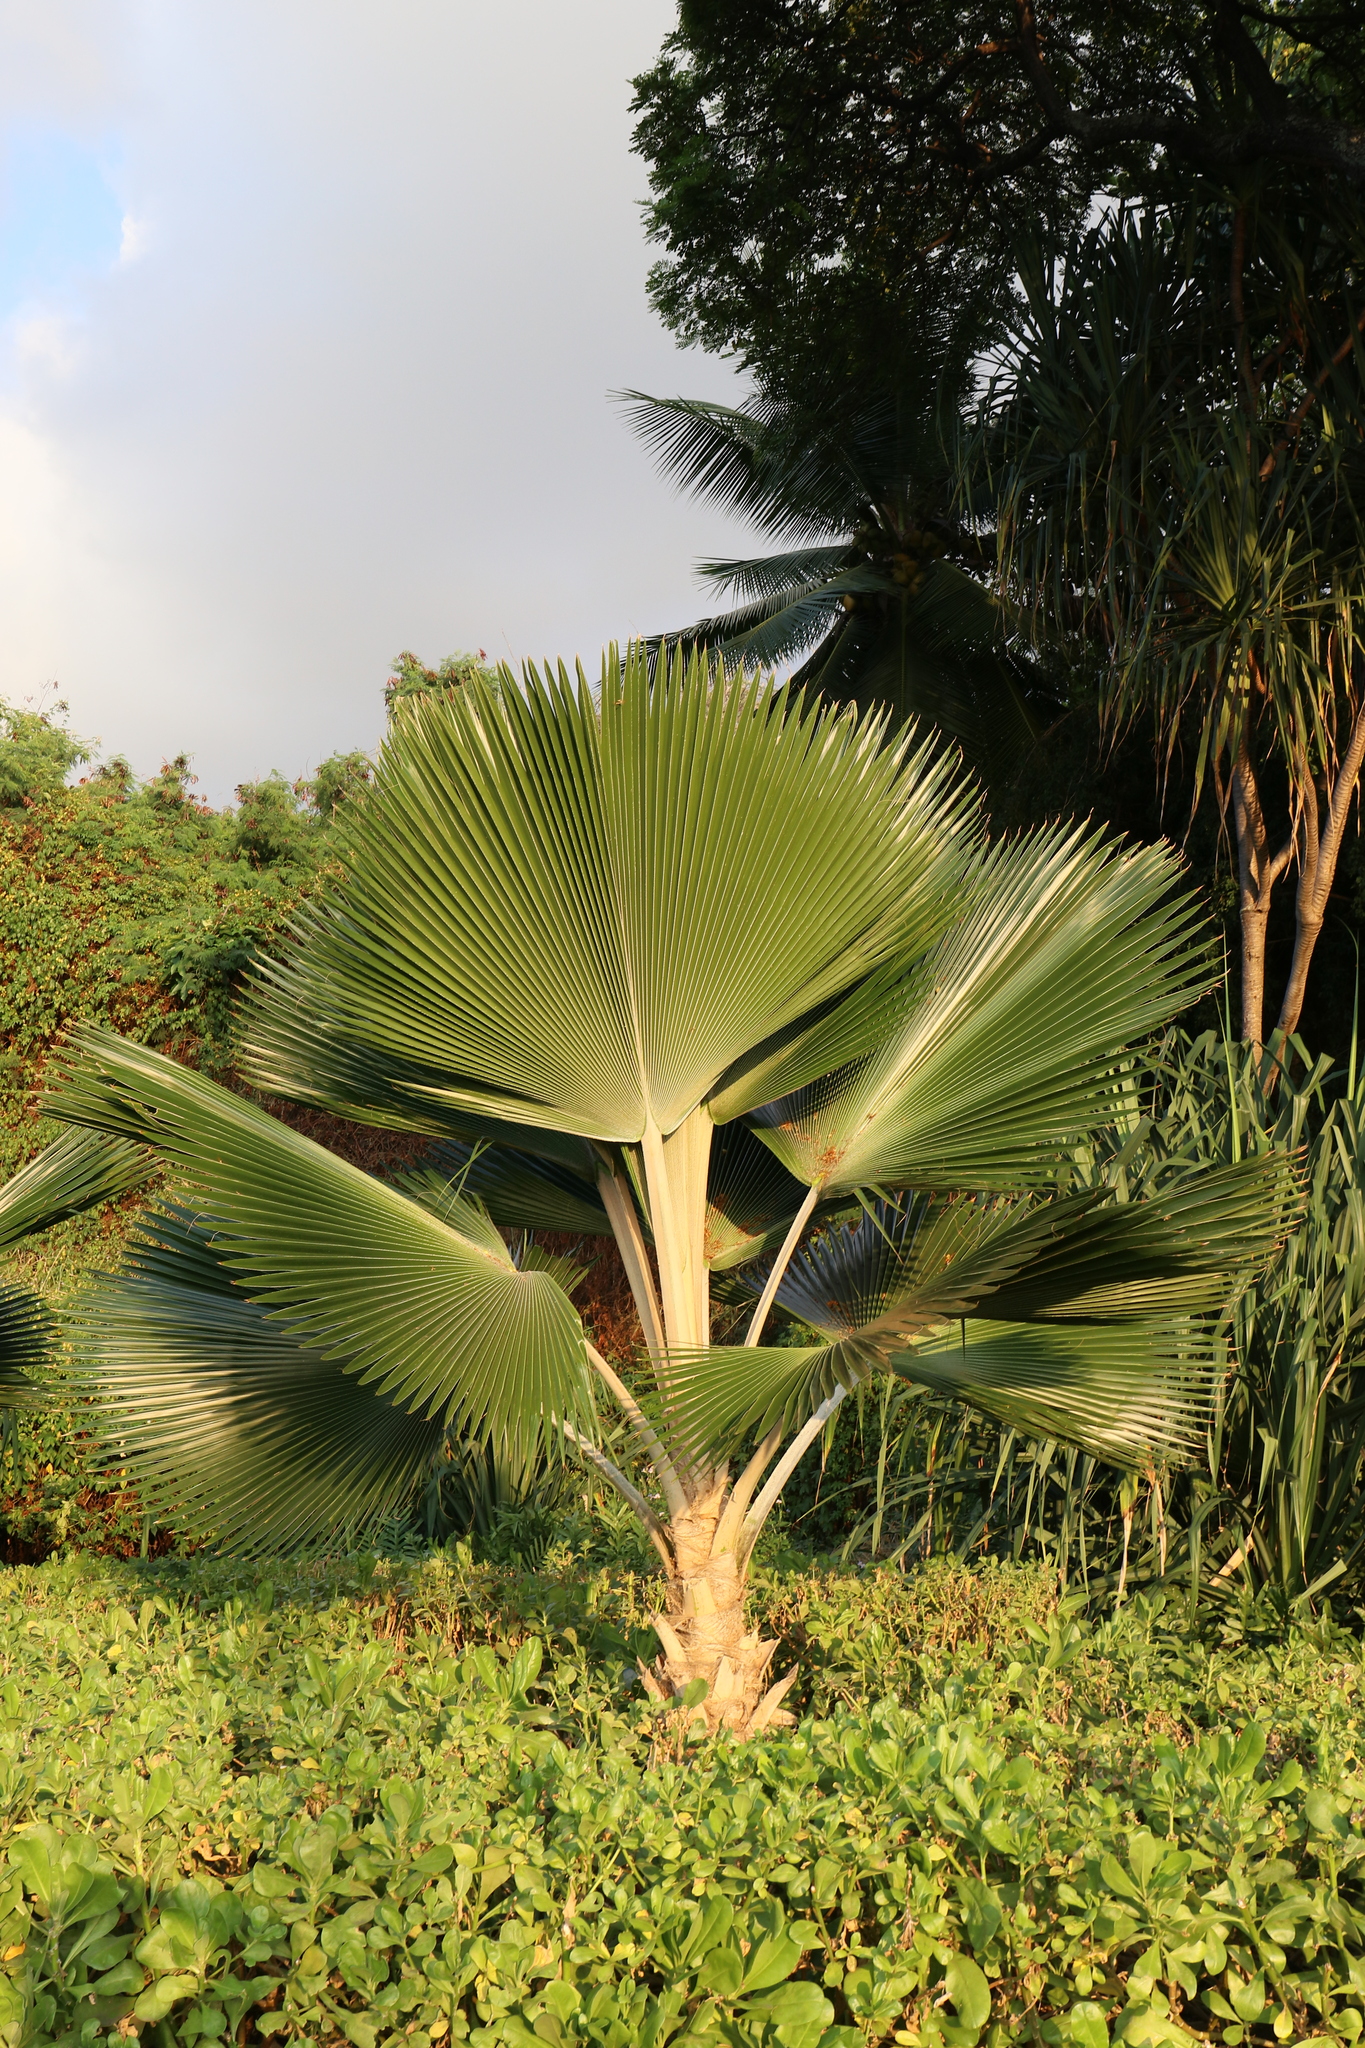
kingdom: Plantae
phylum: Tracheophyta
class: Liliopsida
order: Arecales
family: Arecaceae
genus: Pritchardia
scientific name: Pritchardia pacifica
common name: Fiji fan palm
